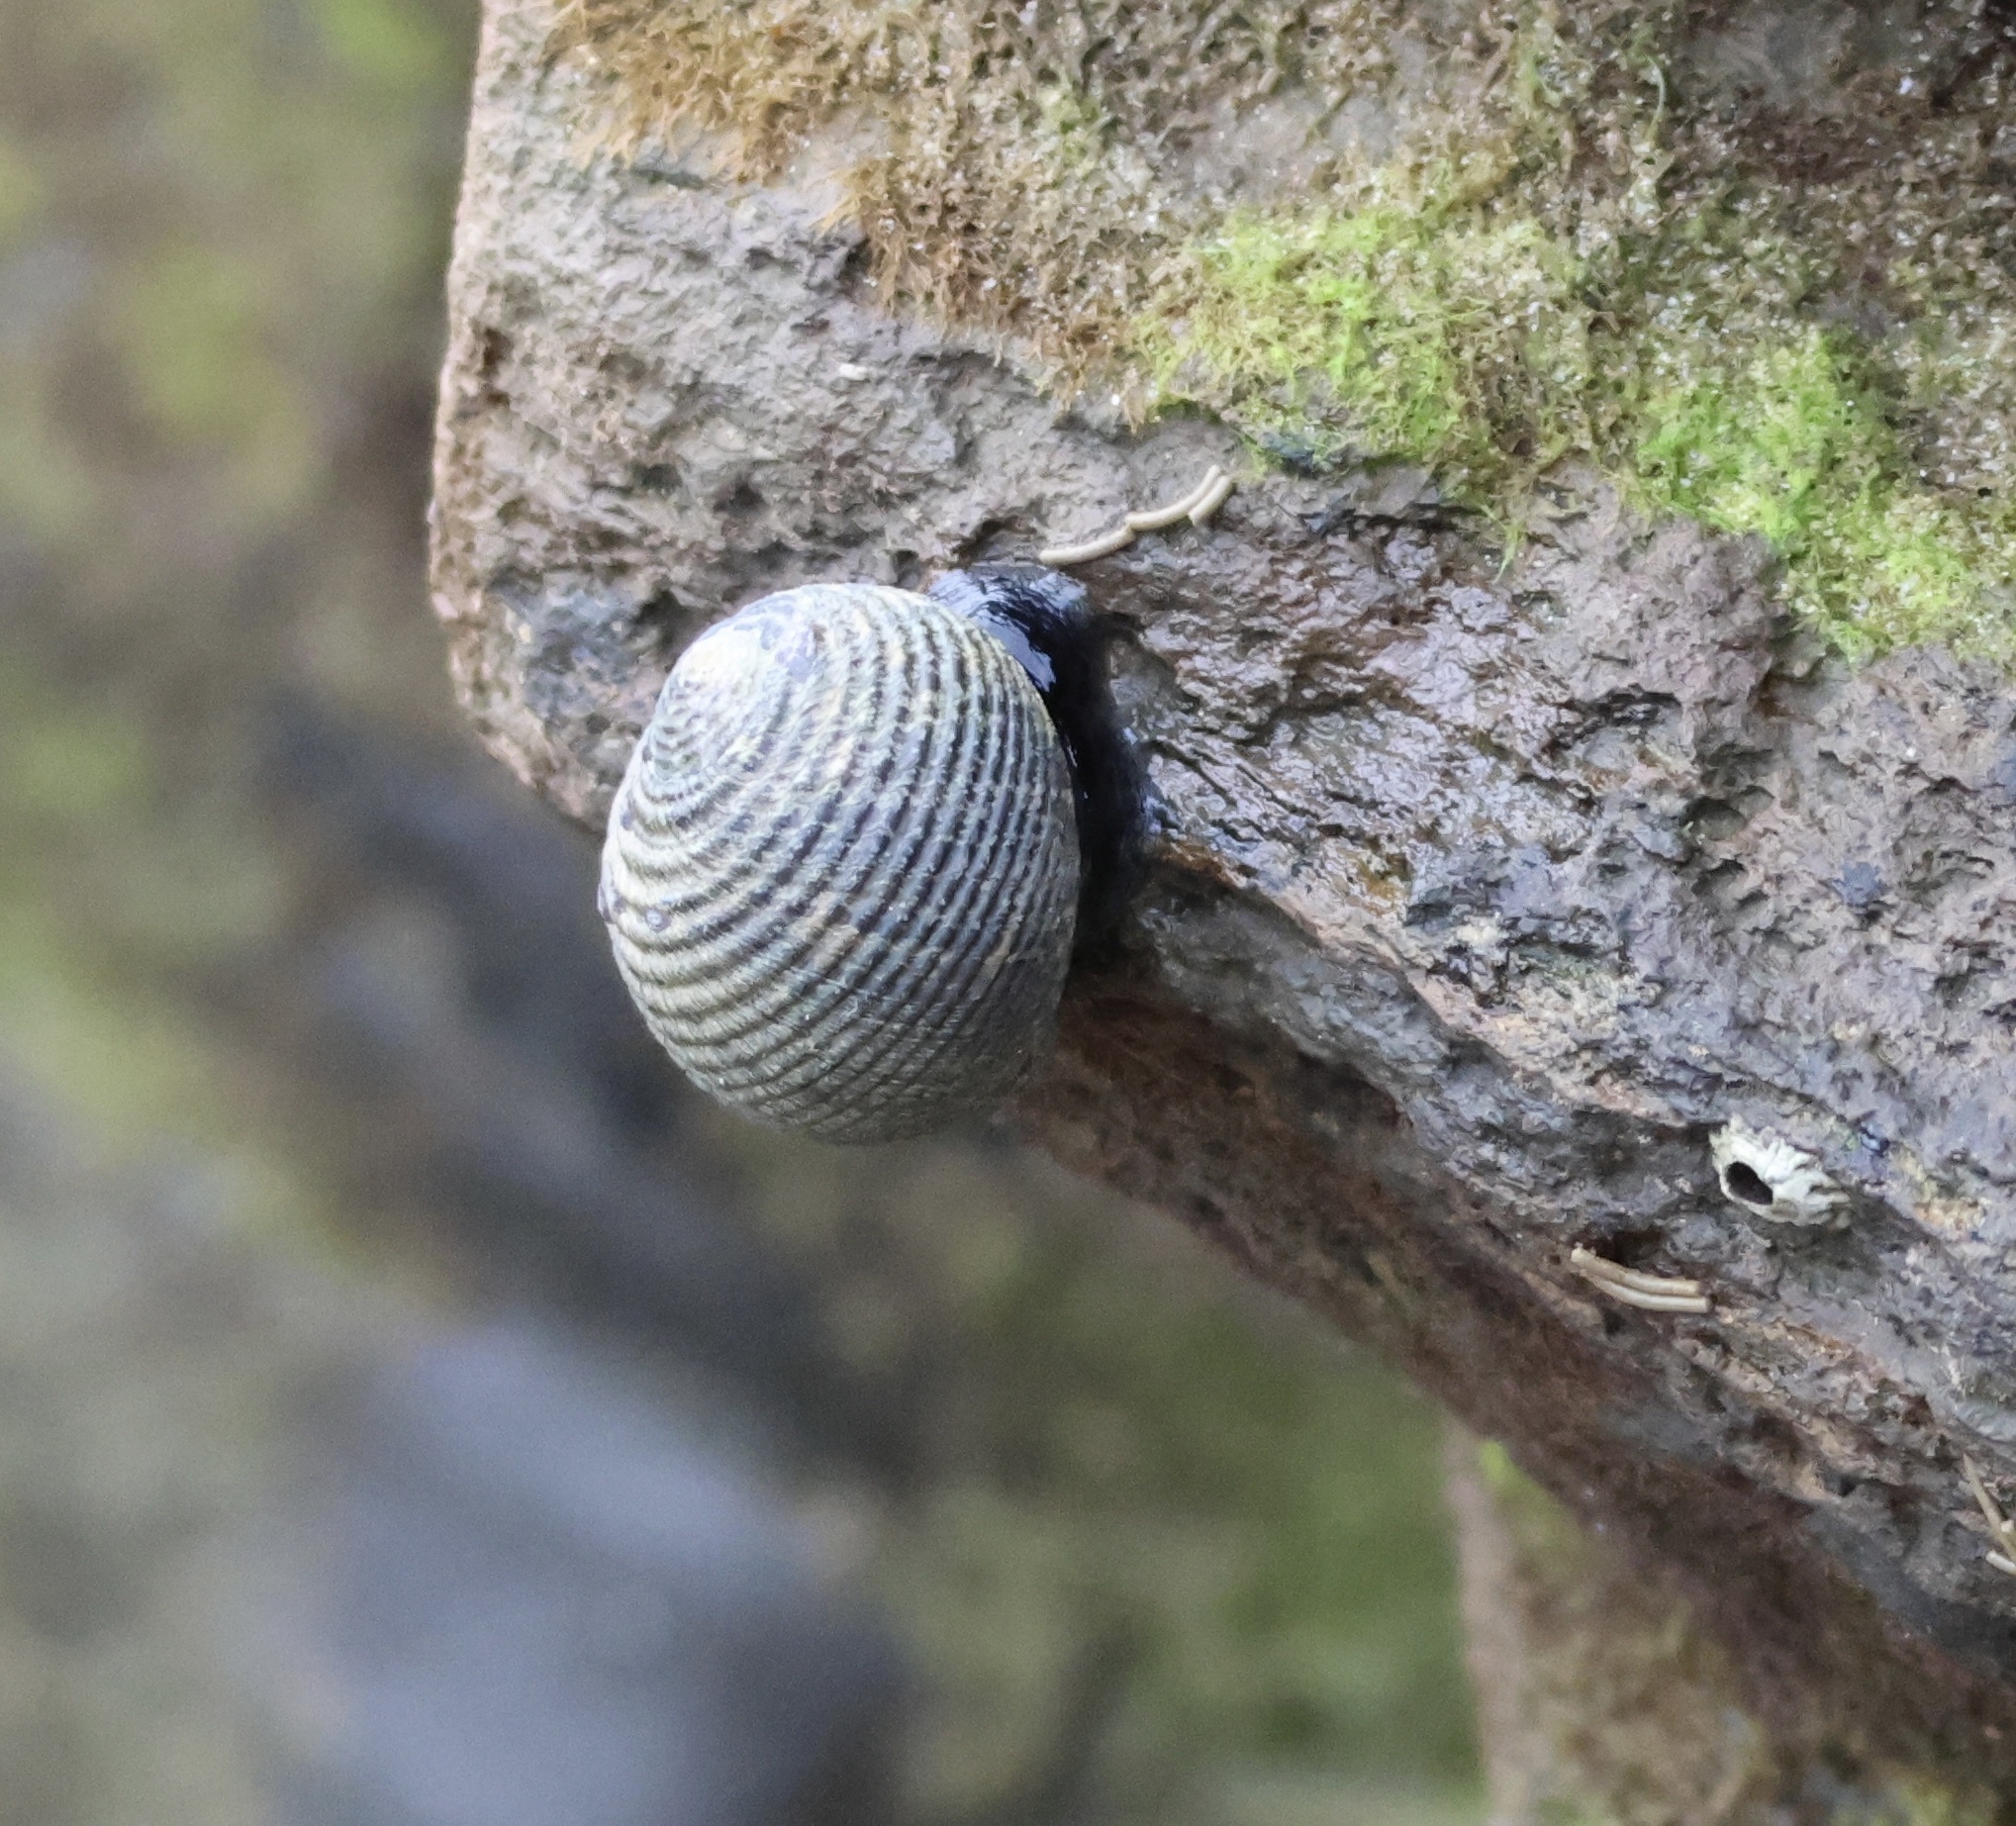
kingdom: Animalia
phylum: Mollusca
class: Gastropoda
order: Cycloneritida
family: Neritidae
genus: Nerita
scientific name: Nerita scabricosta
